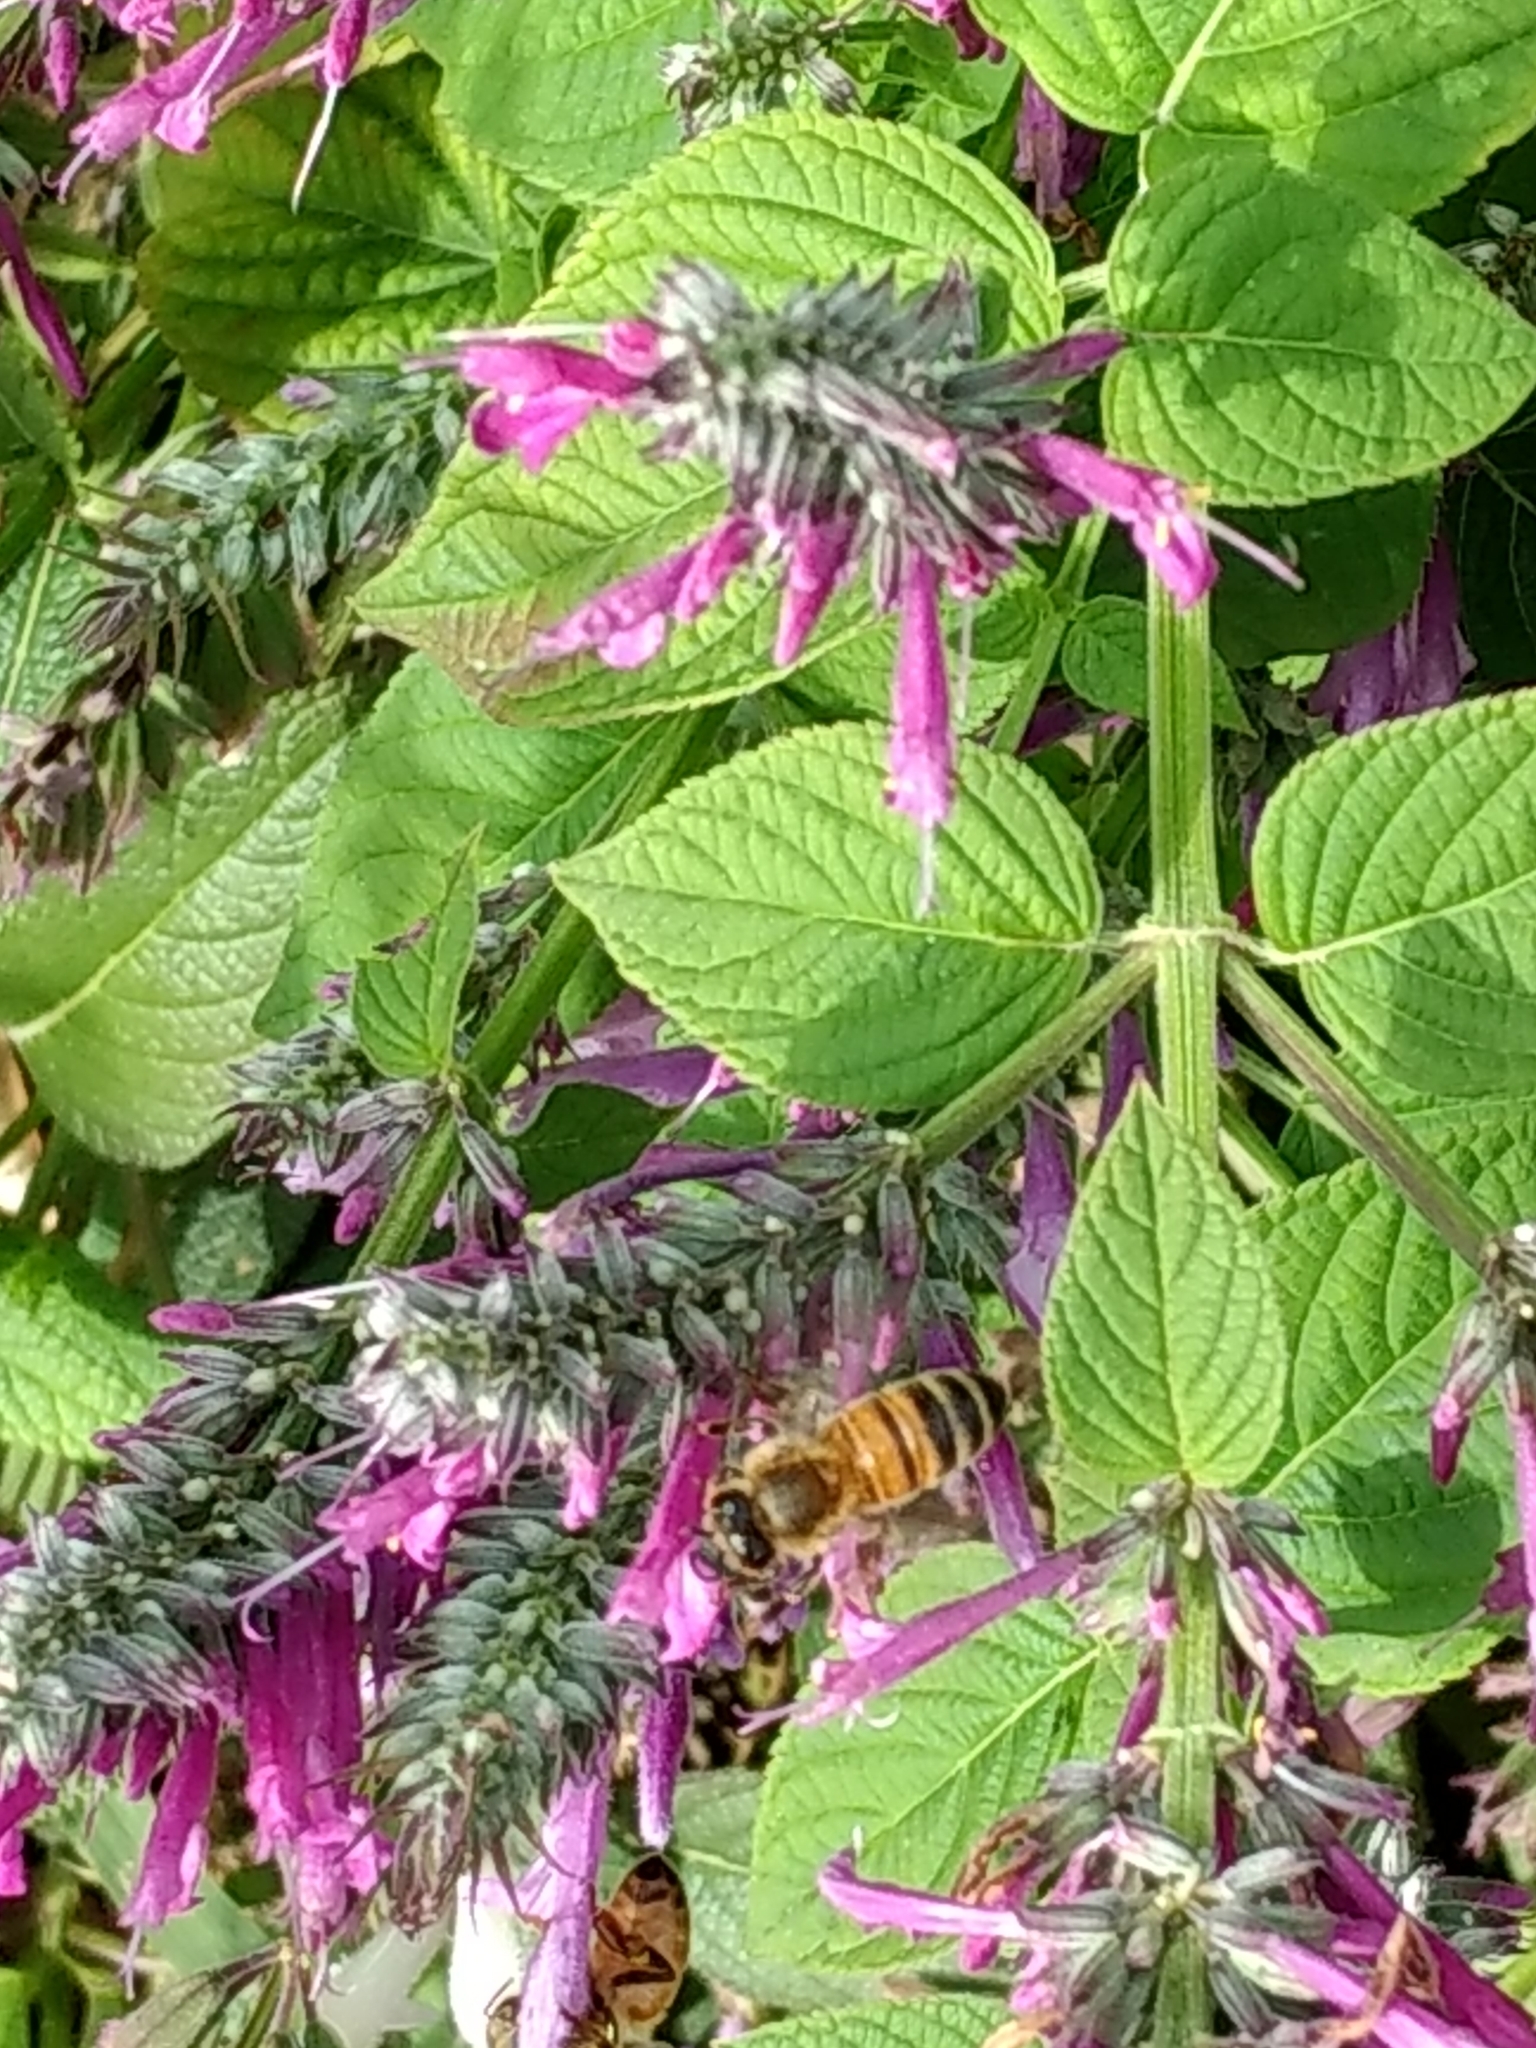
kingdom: Animalia
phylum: Arthropoda
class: Insecta
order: Hymenoptera
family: Apidae
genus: Apis
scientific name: Apis mellifera
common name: Honey bee
